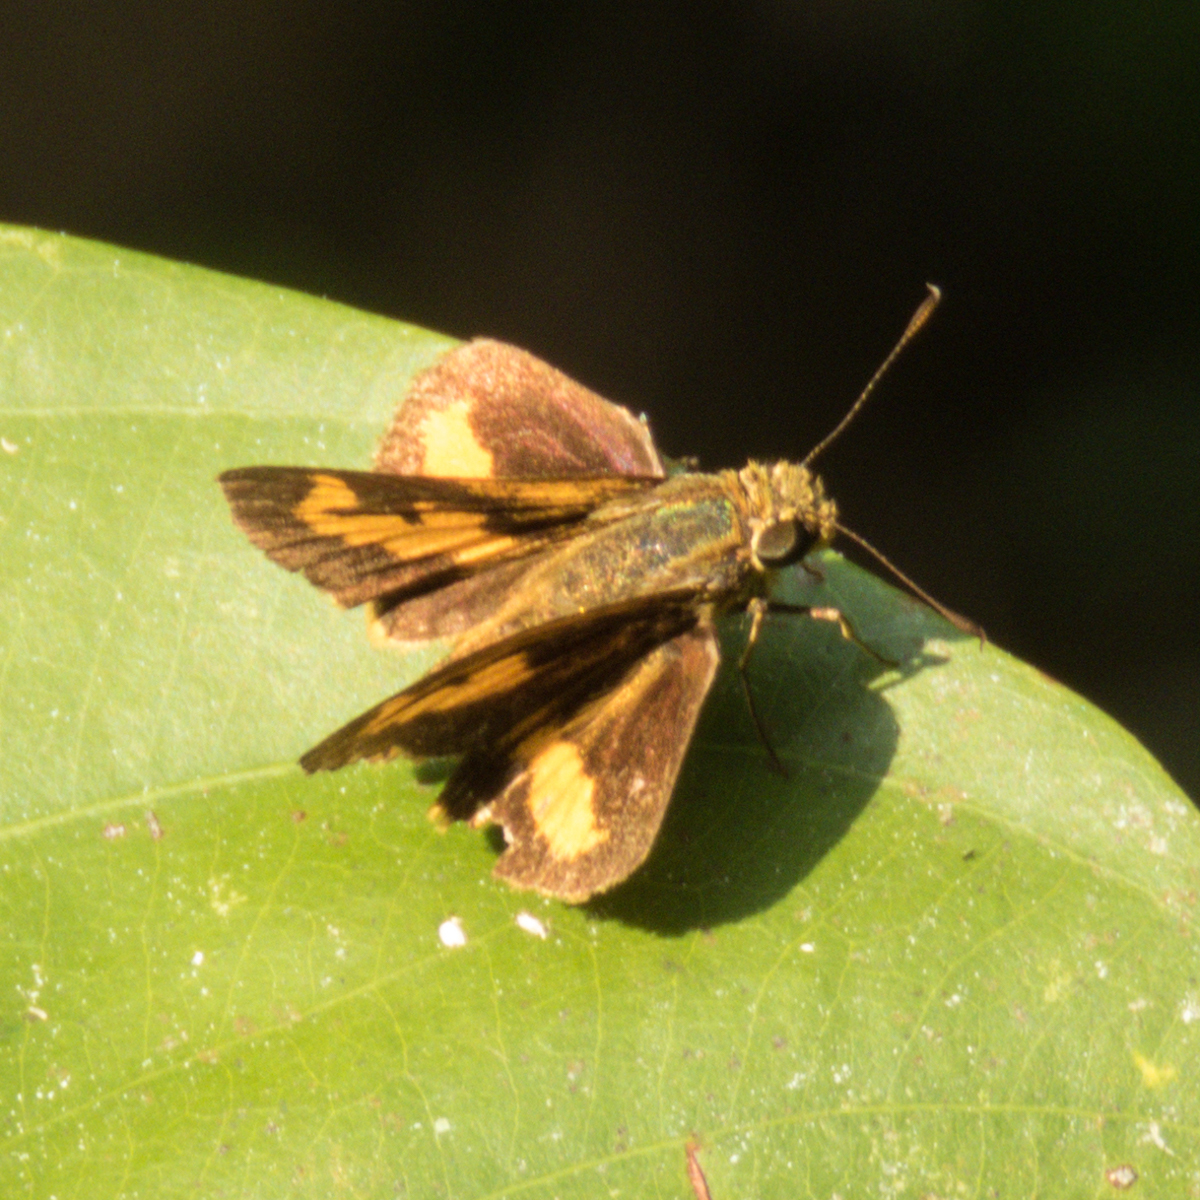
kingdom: Animalia
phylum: Arthropoda
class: Insecta
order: Lepidoptera
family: Hesperiidae
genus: Oriens
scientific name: Oriens gola
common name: Common dartlet
